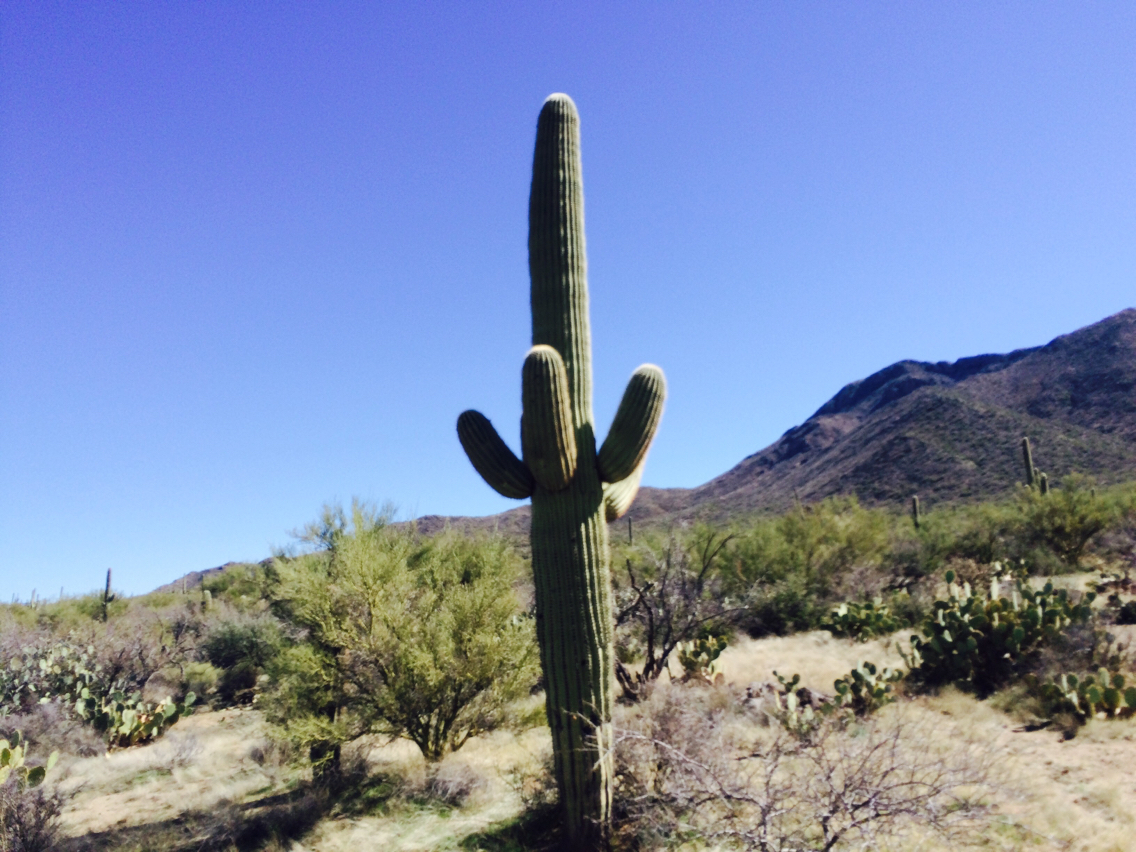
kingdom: Plantae
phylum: Tracheophyta
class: Magnoliopsida
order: Caryophyllales
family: Cactaceae
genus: Carnegiea
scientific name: Carnegiea gigantea
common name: Saguaro
